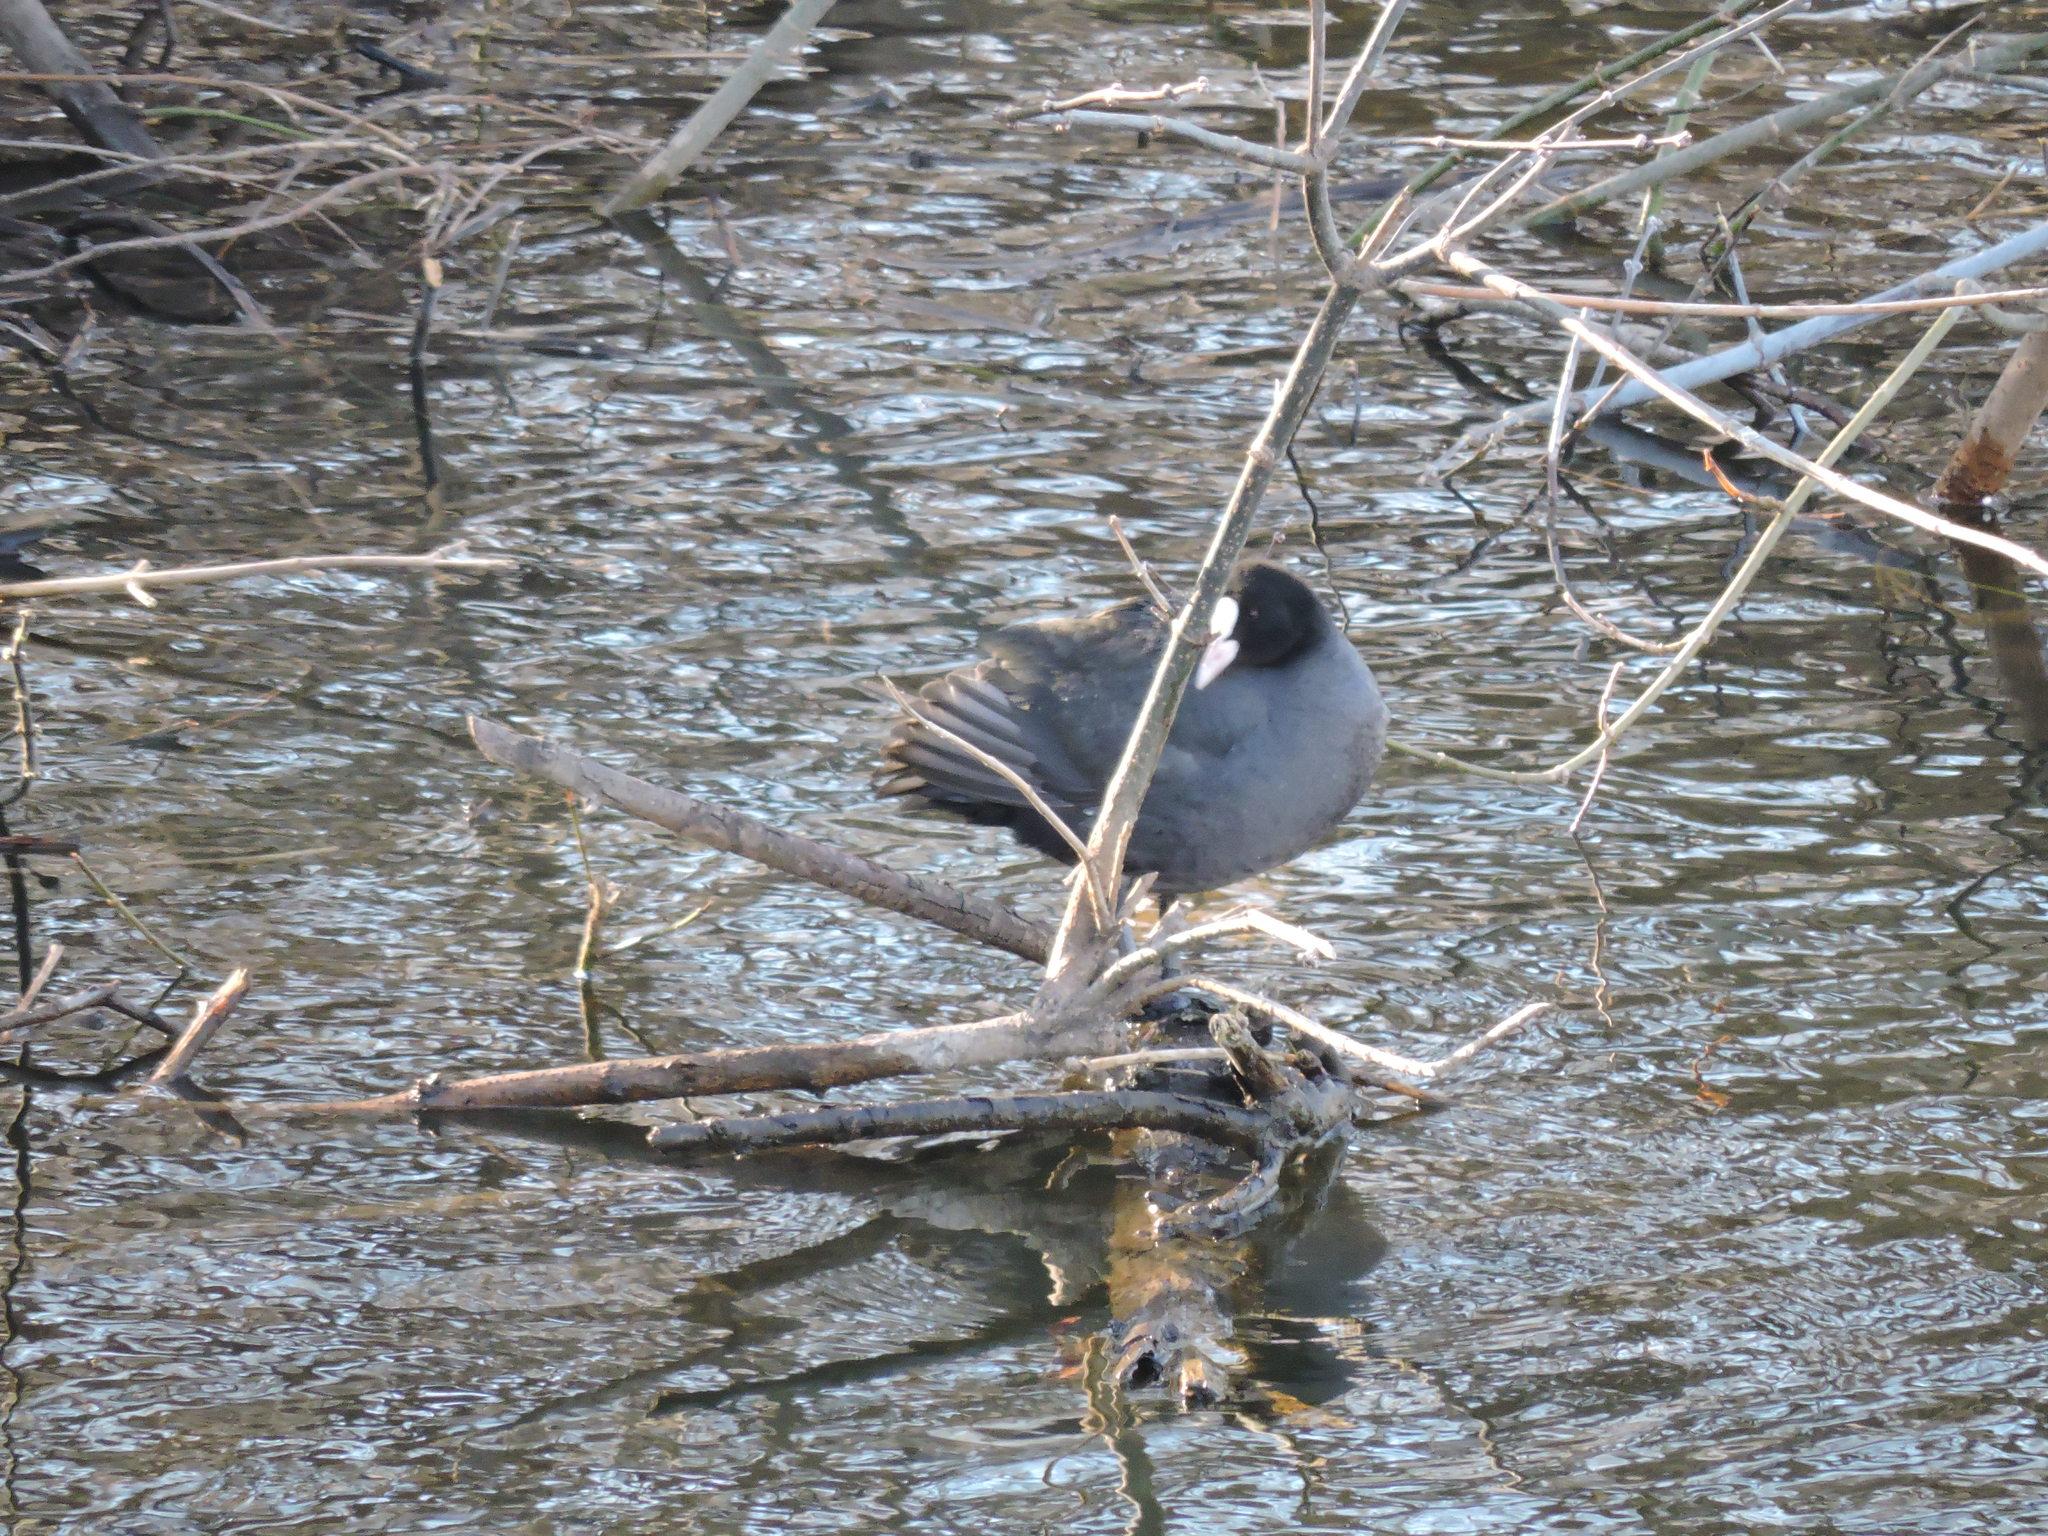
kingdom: Animalia
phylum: Chordata
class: Aves
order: Gruiformes
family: Rallidae
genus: Fulica
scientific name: Fulica atra
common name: Eurasian coot
